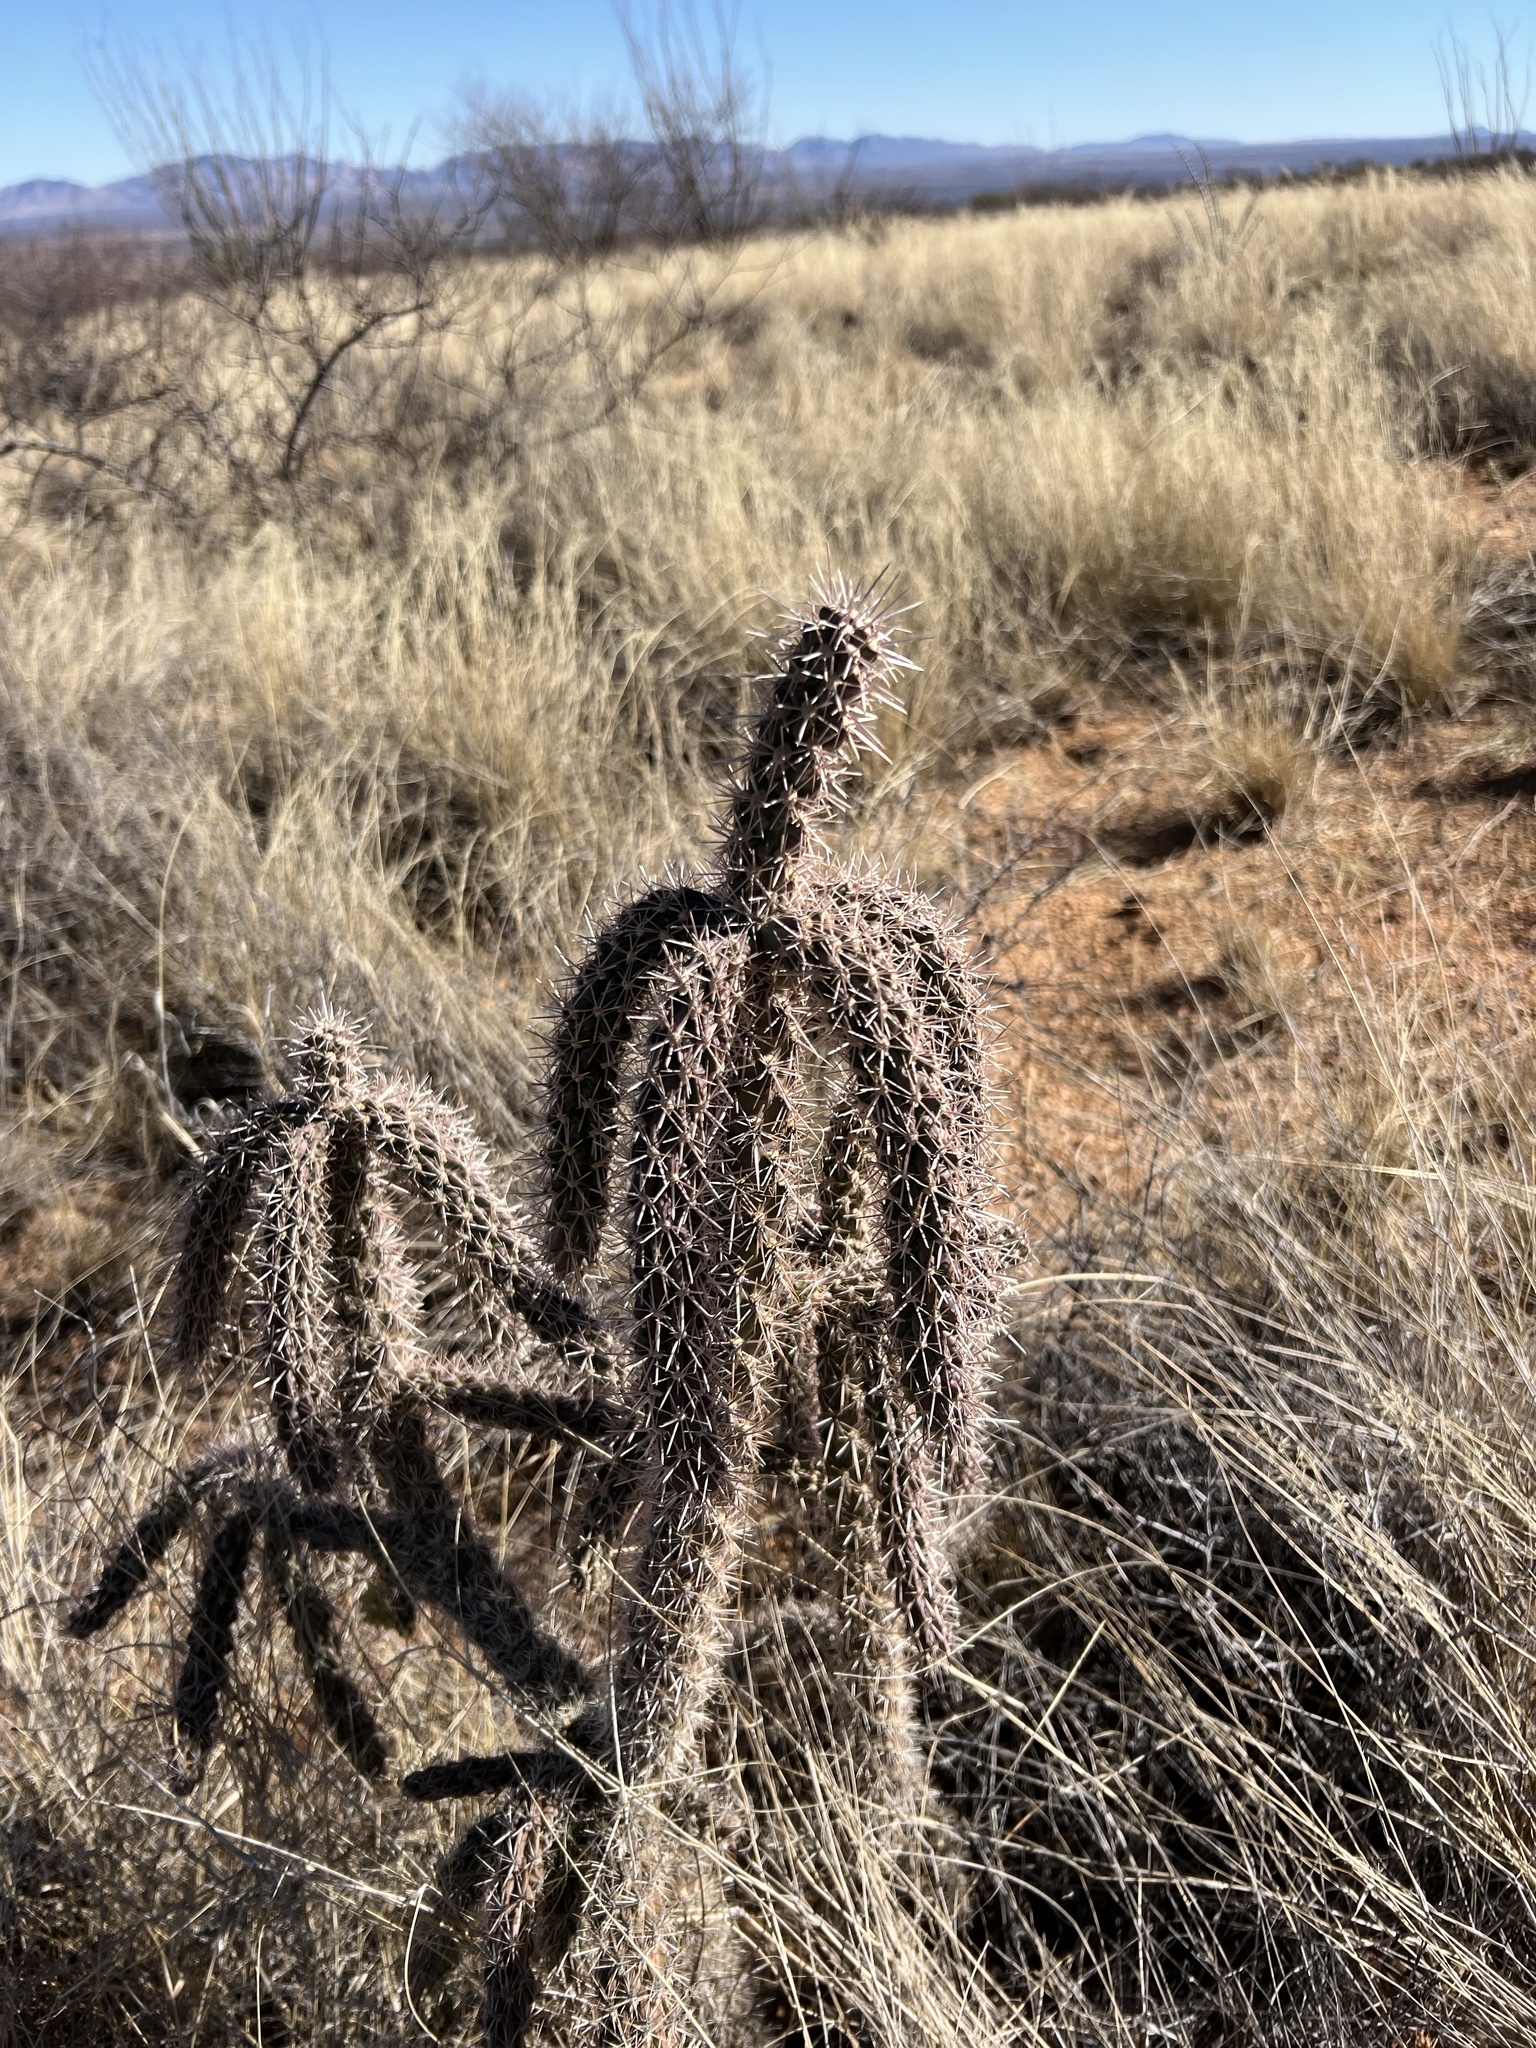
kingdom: Plantae
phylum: Tracheophyta
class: Magnoliopsida
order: Caryophyllales
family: Cactaceae
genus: Cylindropuntia
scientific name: Cylindropuntia imbricata
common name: Candelabrum cactus
